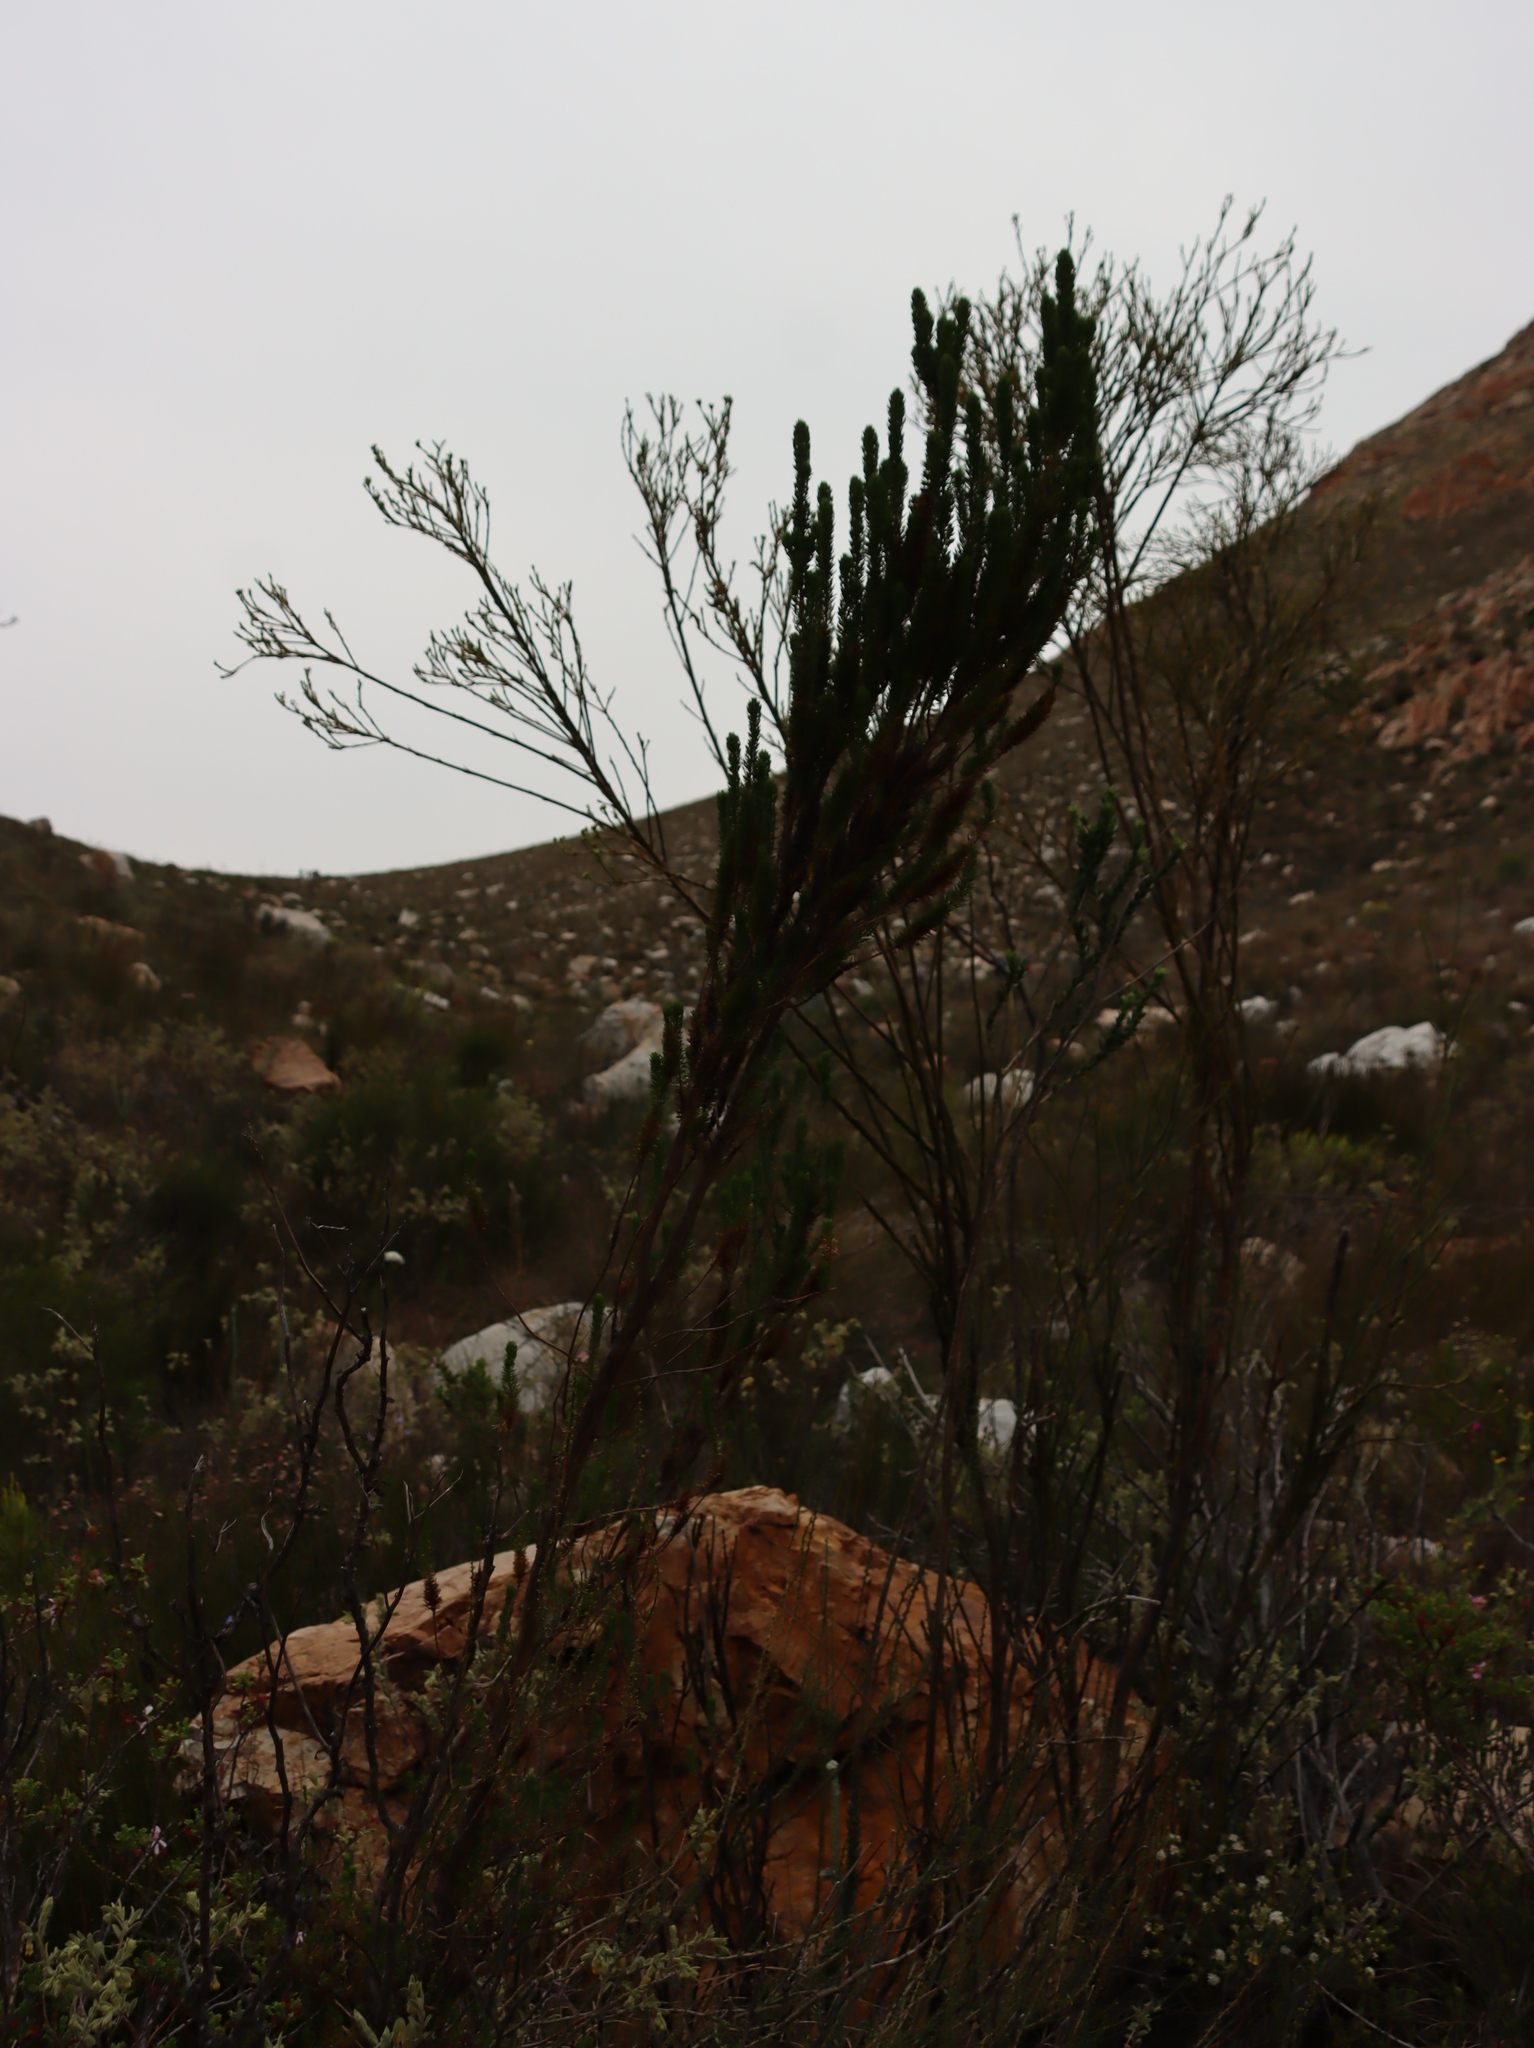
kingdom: Plantae
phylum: Tracheophyta
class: Magnoliopsida
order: Santalales
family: Thesiaceae
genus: Thesium
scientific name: Thesium strictum
